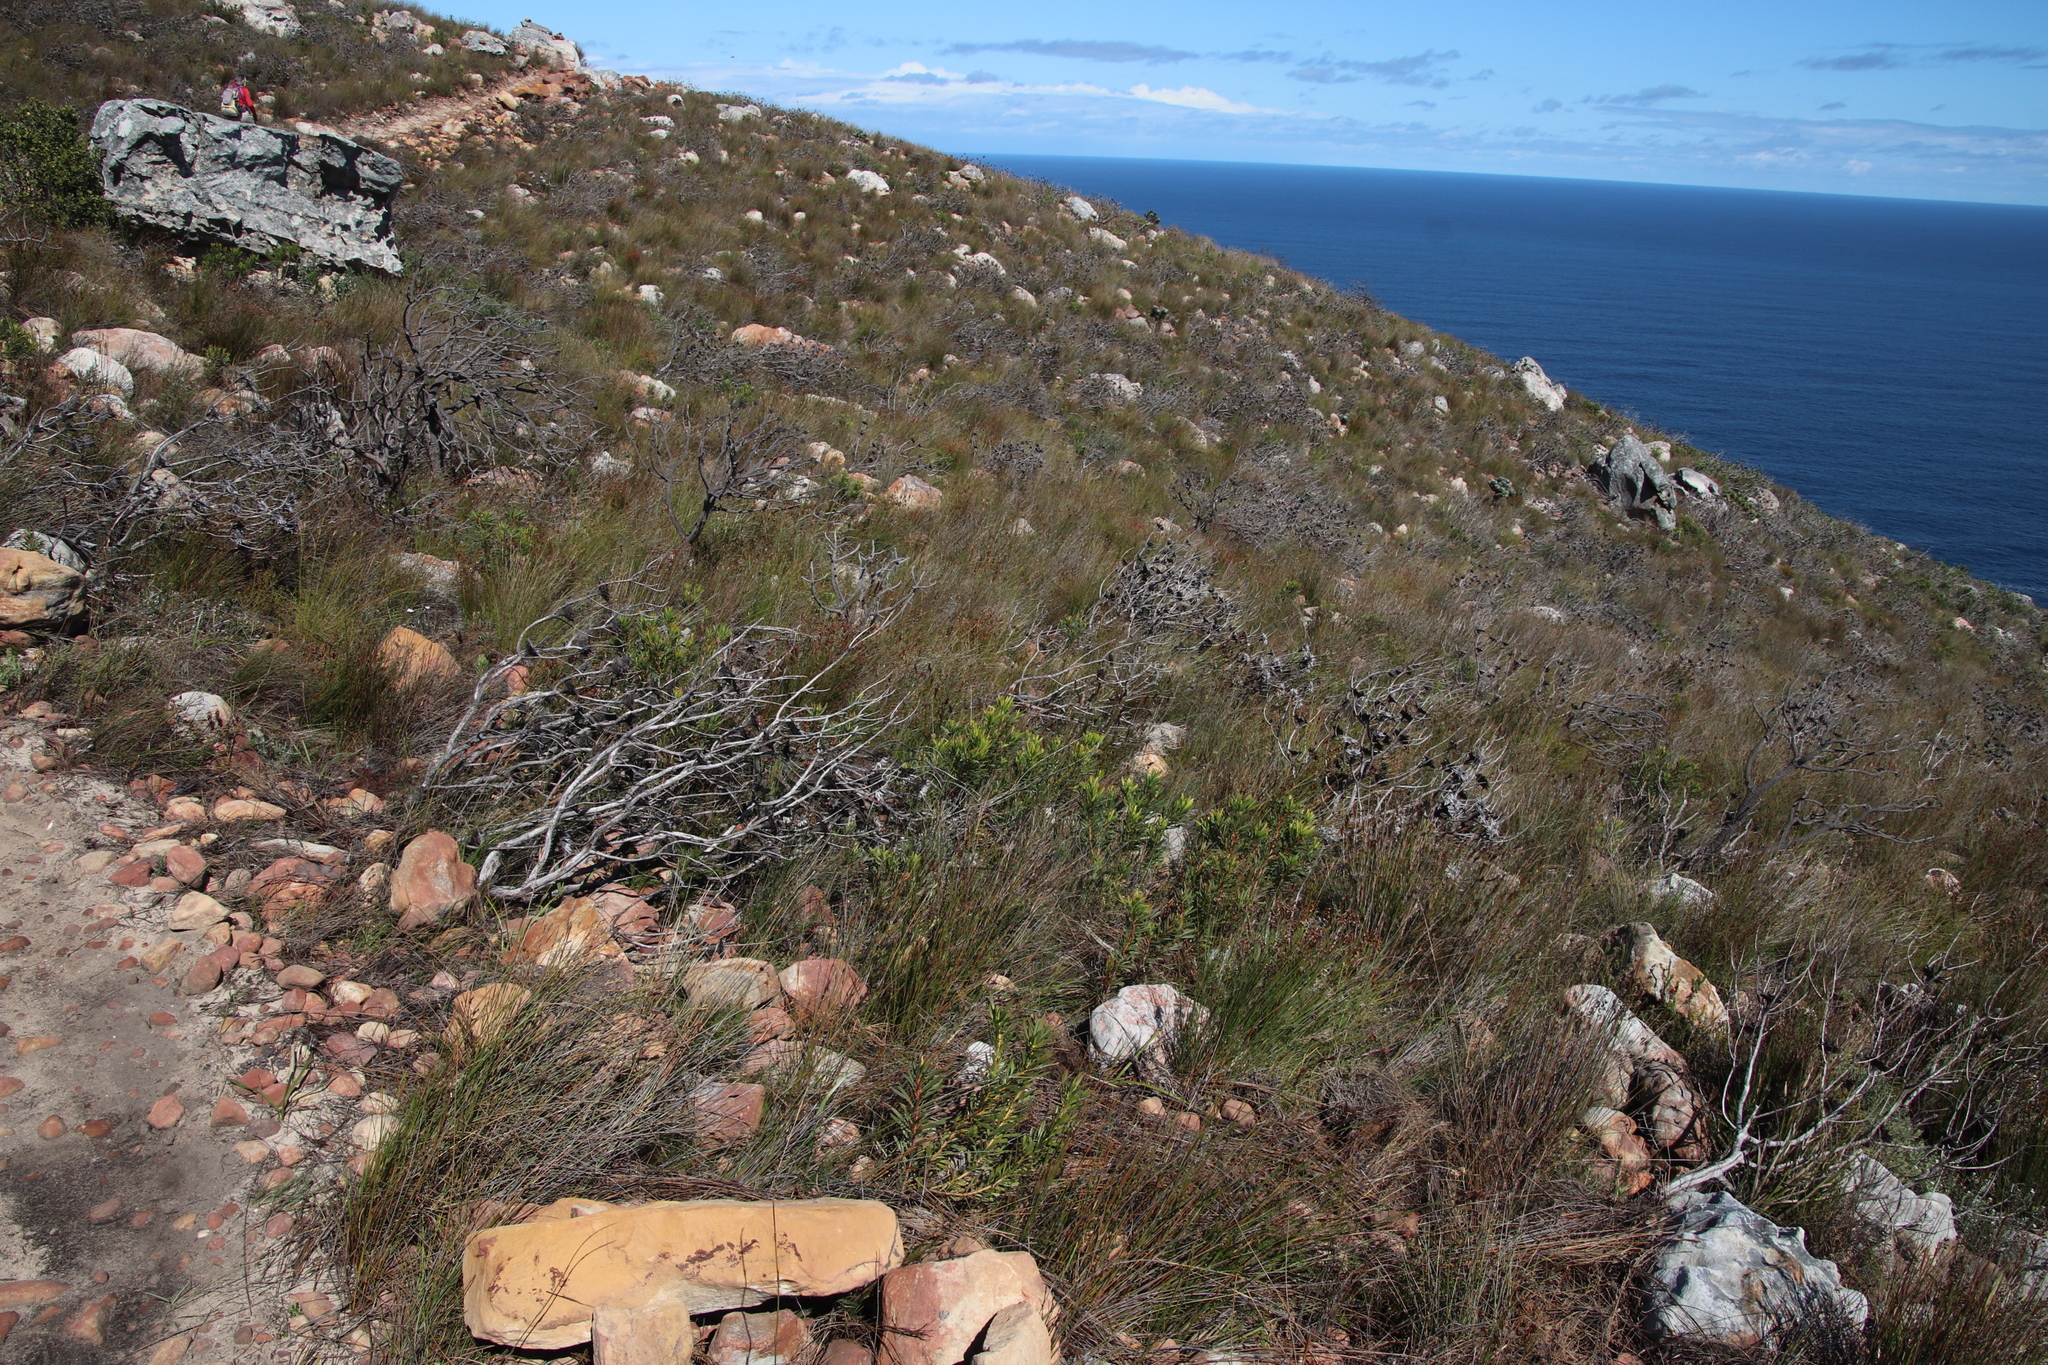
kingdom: Plantae
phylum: Tracheophyta
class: Magnoliopsida
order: Proteales
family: Proteaceae
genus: Protea
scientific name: Protea repens
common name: Sugarbush
